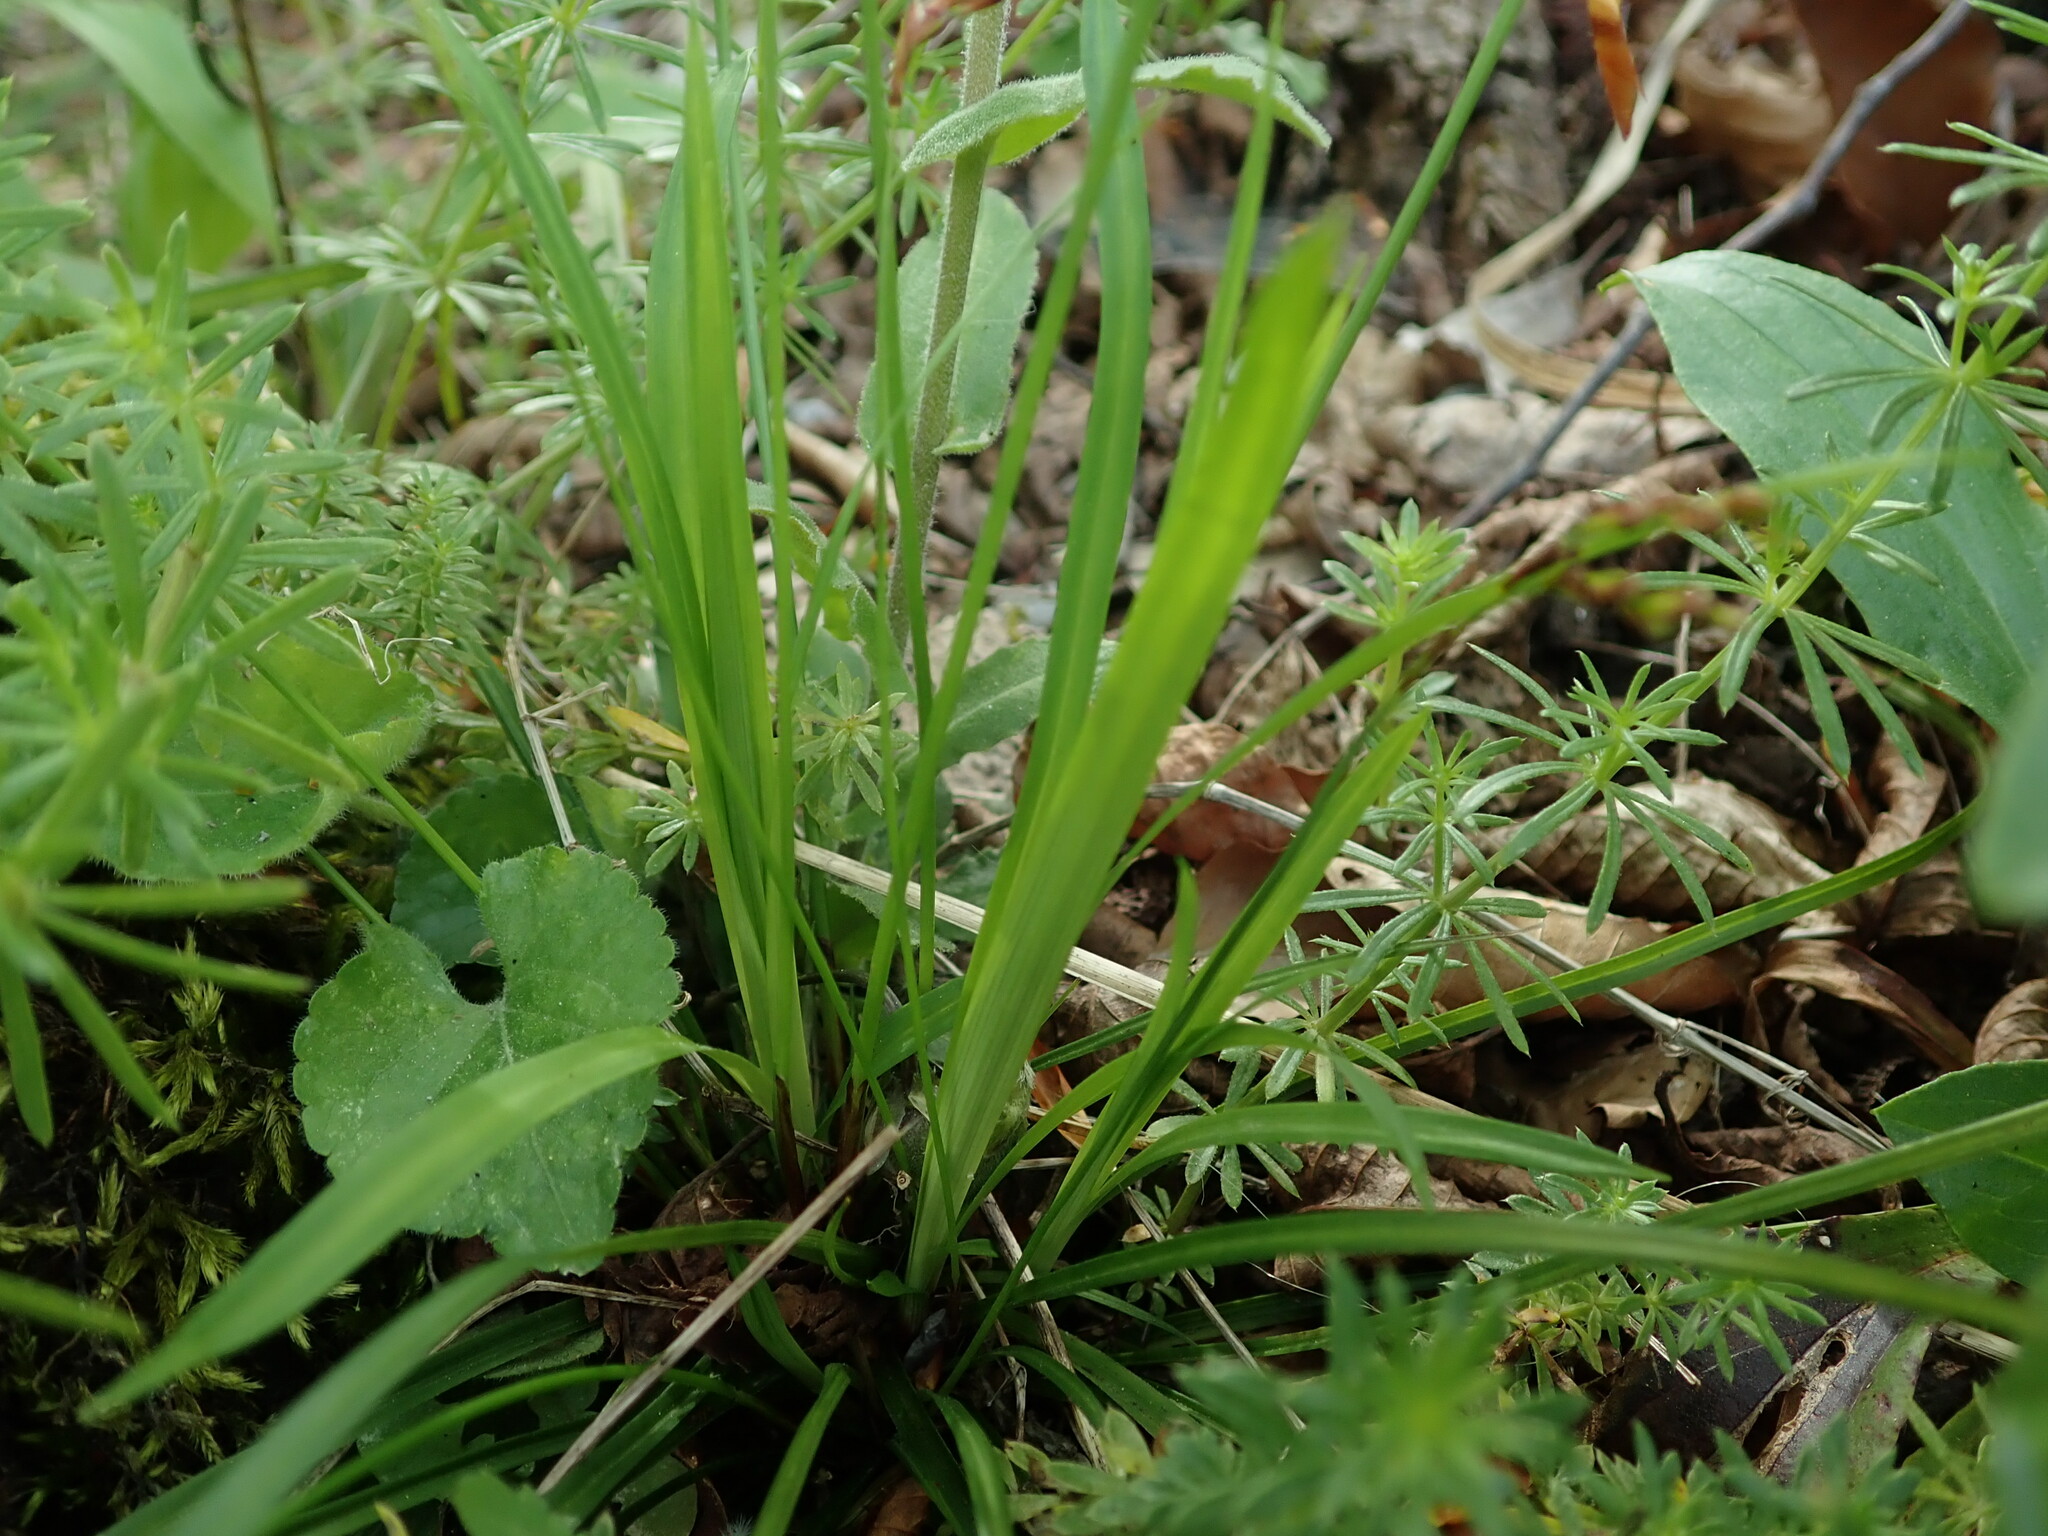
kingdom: Plantae
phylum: Tracheophyta
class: Liliopsida
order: Poales
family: Cyperaceae
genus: Carex
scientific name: Carex digitata
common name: Fingered sedge
